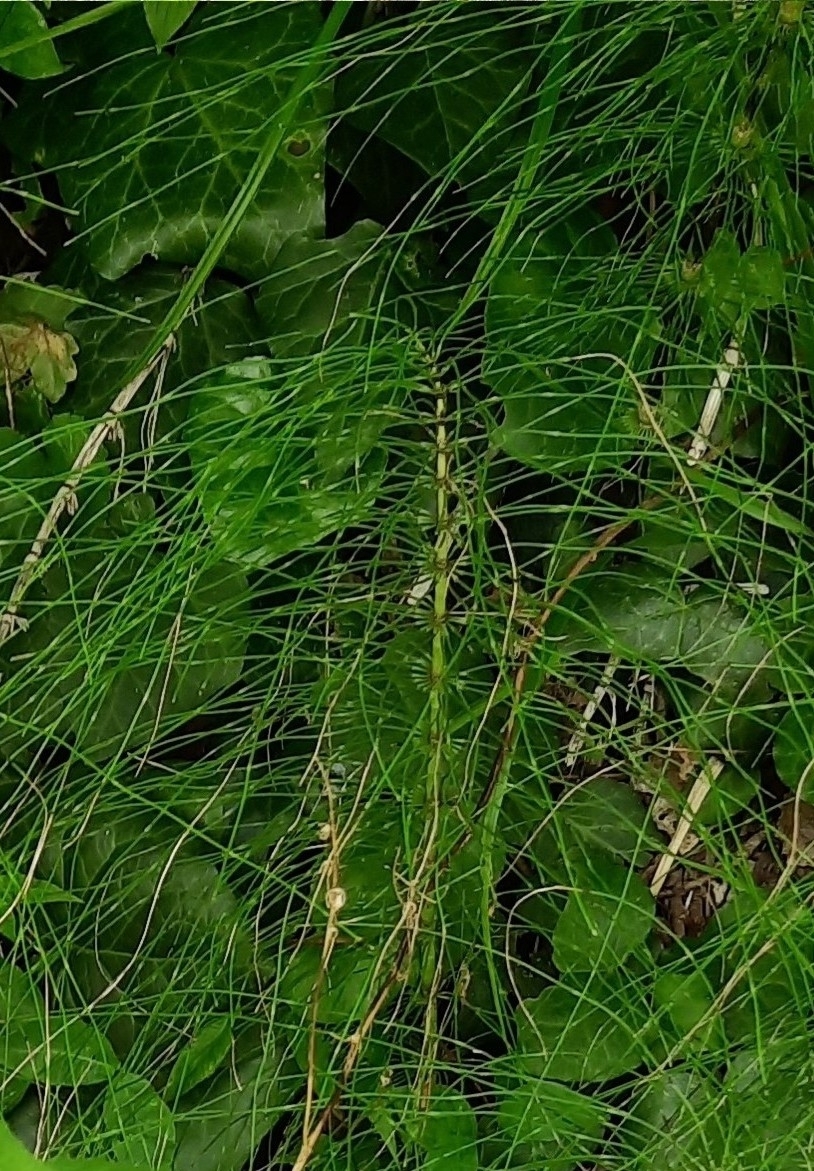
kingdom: Plantae
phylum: Tracheophyta
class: Polypodiopsida
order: Equisetales
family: Equisetaceae
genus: Equisetum
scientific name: Equisetum telmateia
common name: Great horsetail
